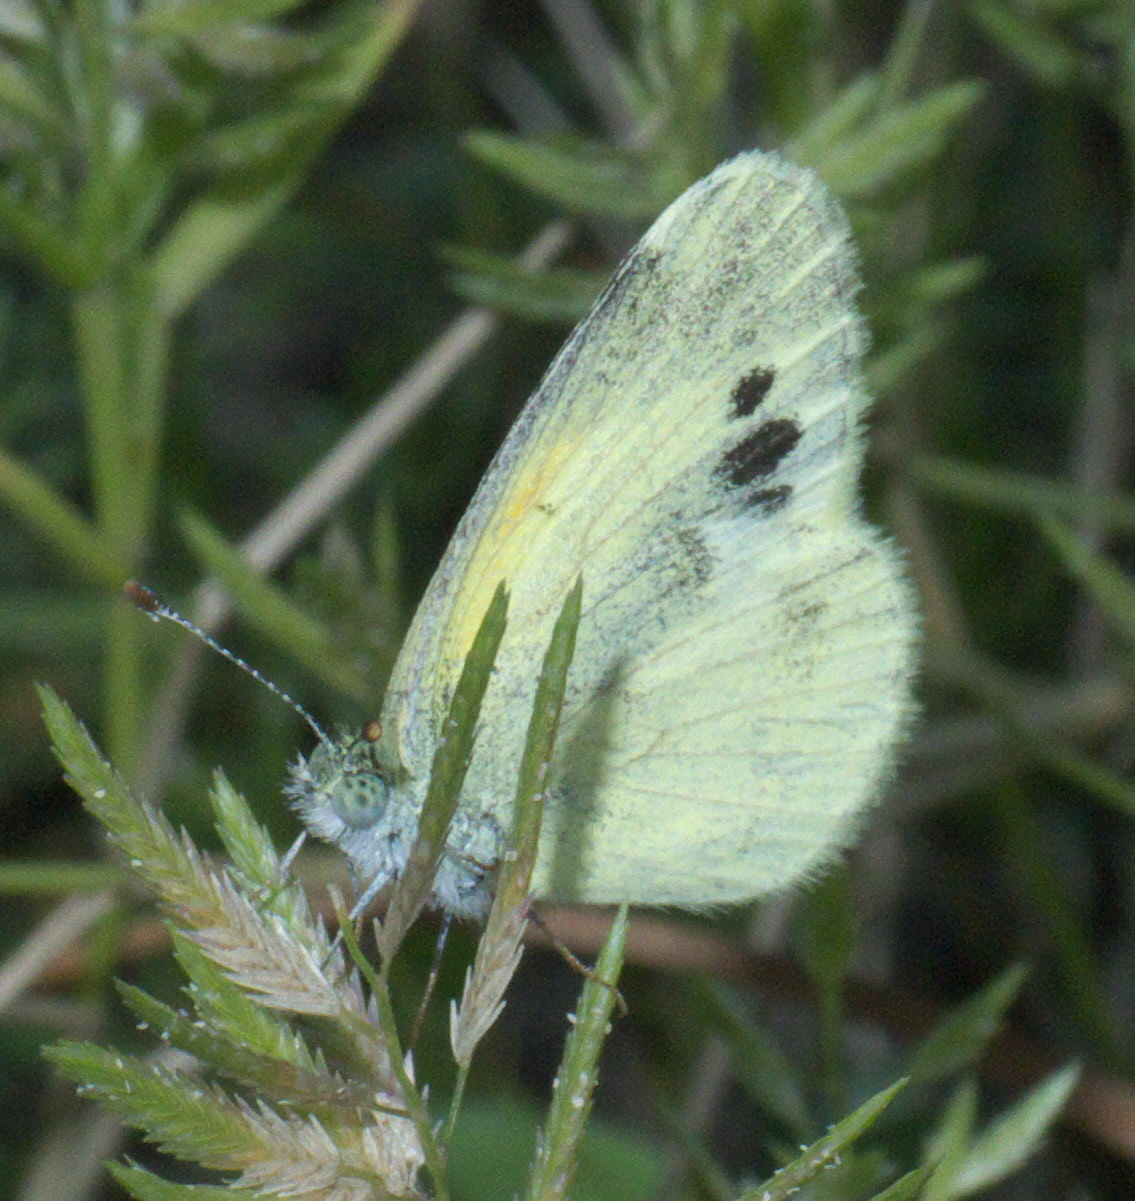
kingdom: Animalia
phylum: Arthropoda
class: Insecta
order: Lepidoptera
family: Pieridae
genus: Nathalis
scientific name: Nathalis iole
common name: Dainty sulphur
